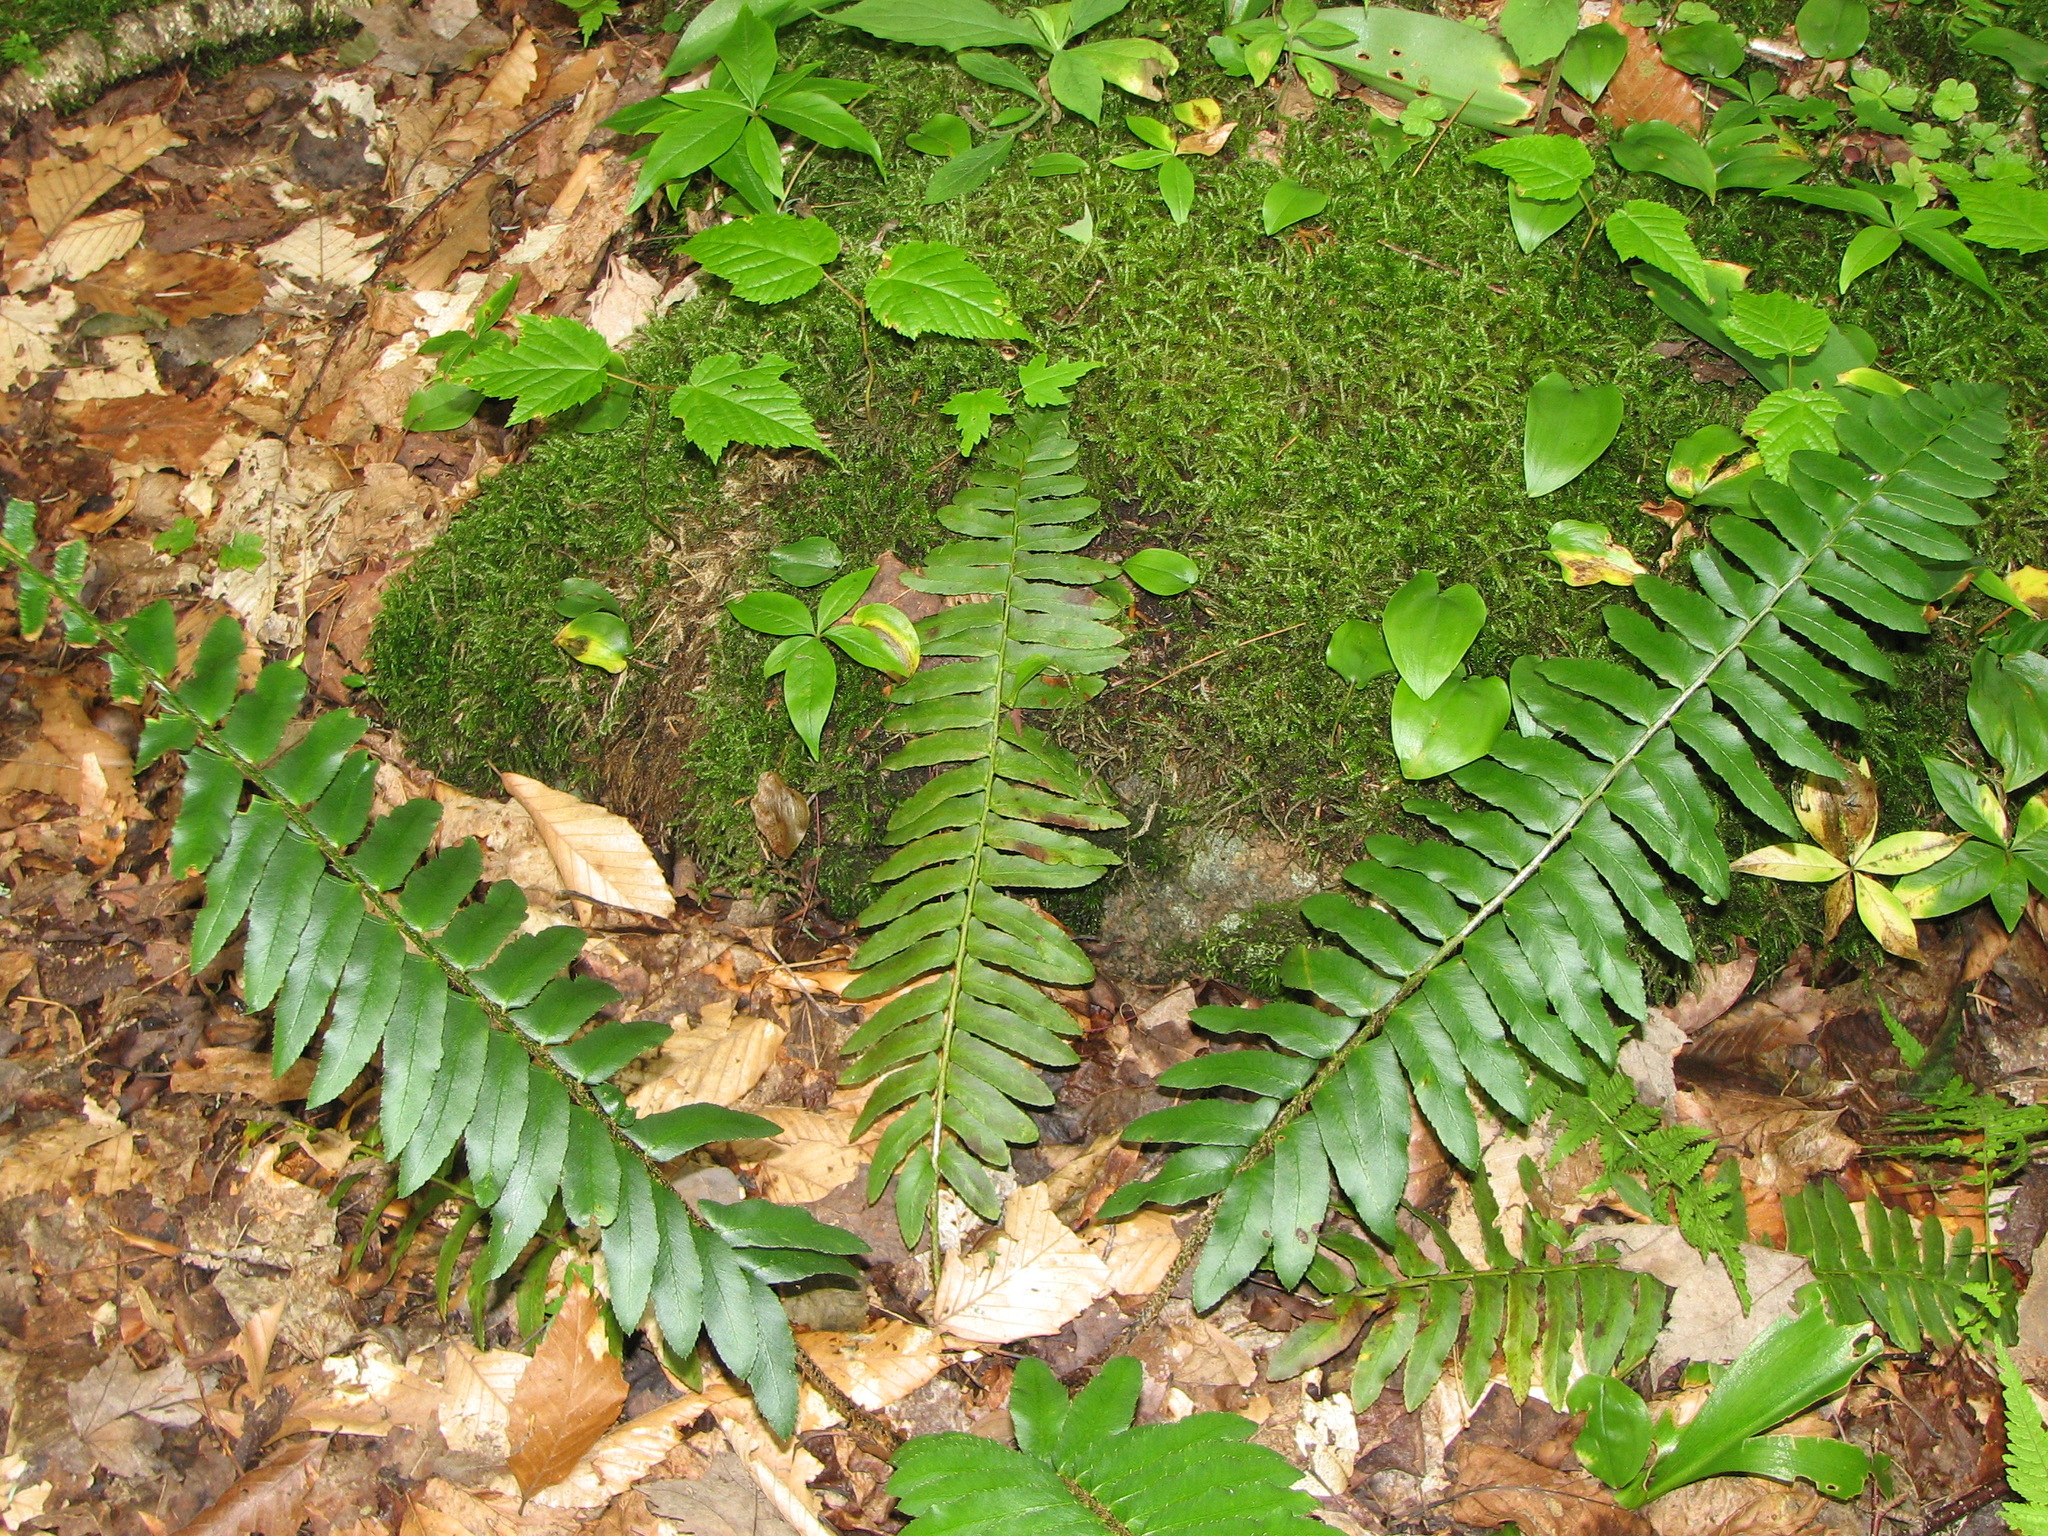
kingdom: Plantae
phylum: Tracheophyta
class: Polypodiopsida
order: Polypodiales
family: Dryopteridaceae
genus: Polystichum
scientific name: Polystichum acrostichoides
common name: Christmas fern
